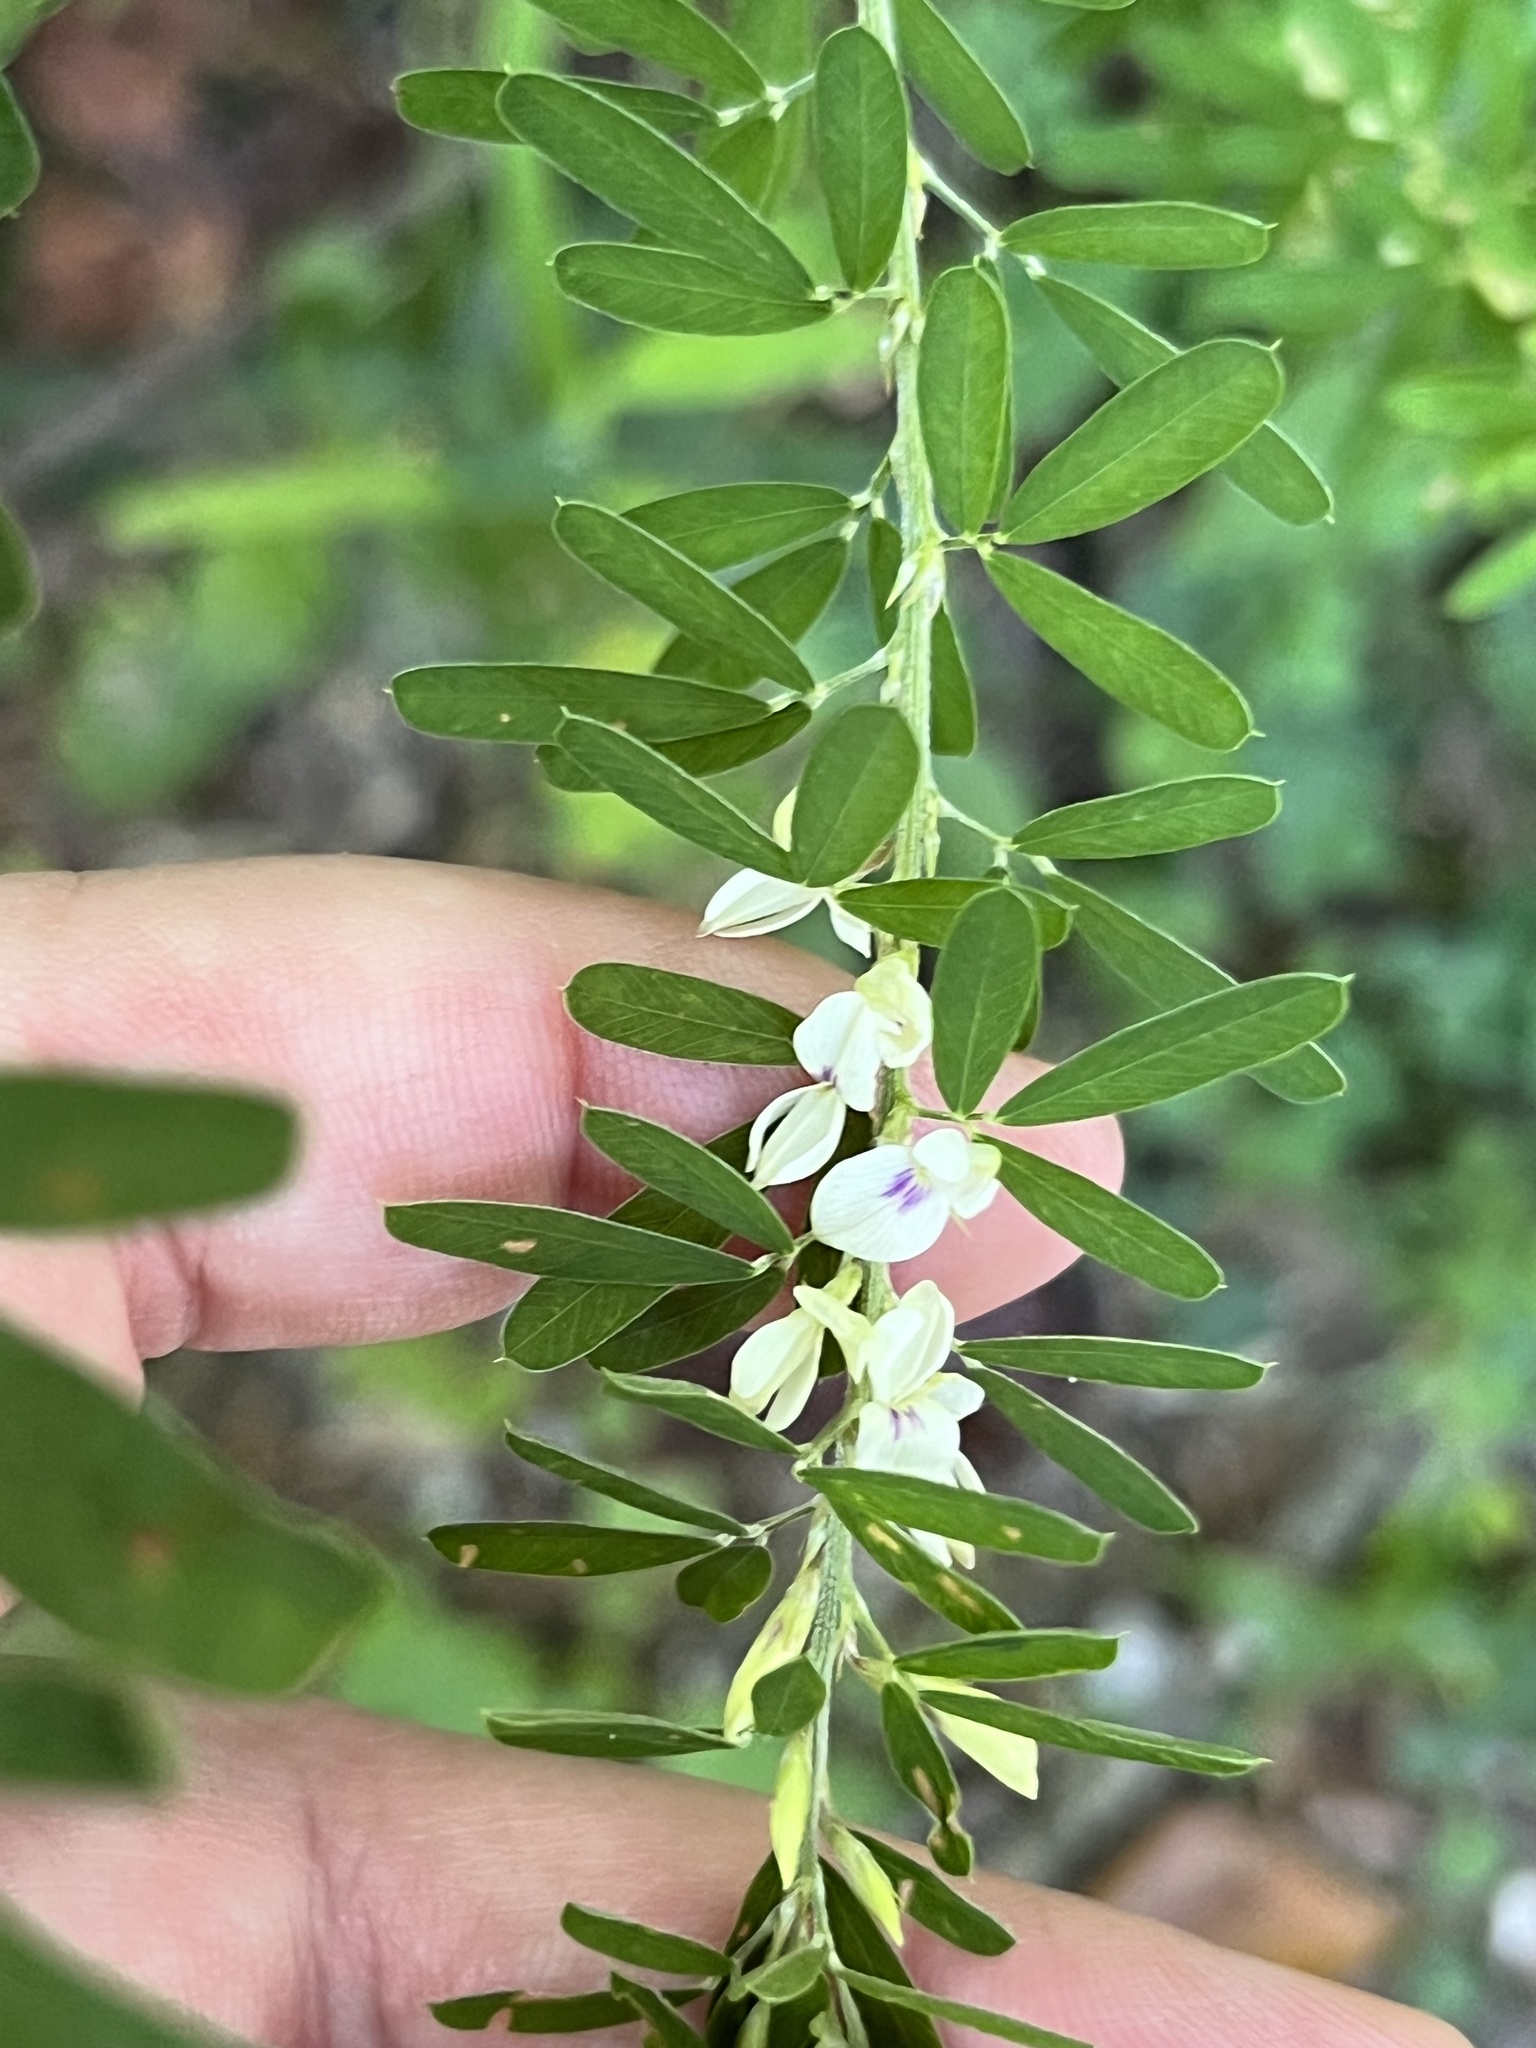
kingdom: Plantae
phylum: Tracheophyta
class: Magnoliopsida
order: Fabales
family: Fabaceae
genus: Lespedeza
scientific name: Lespedeza cuneata
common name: Chinese bush-clover
